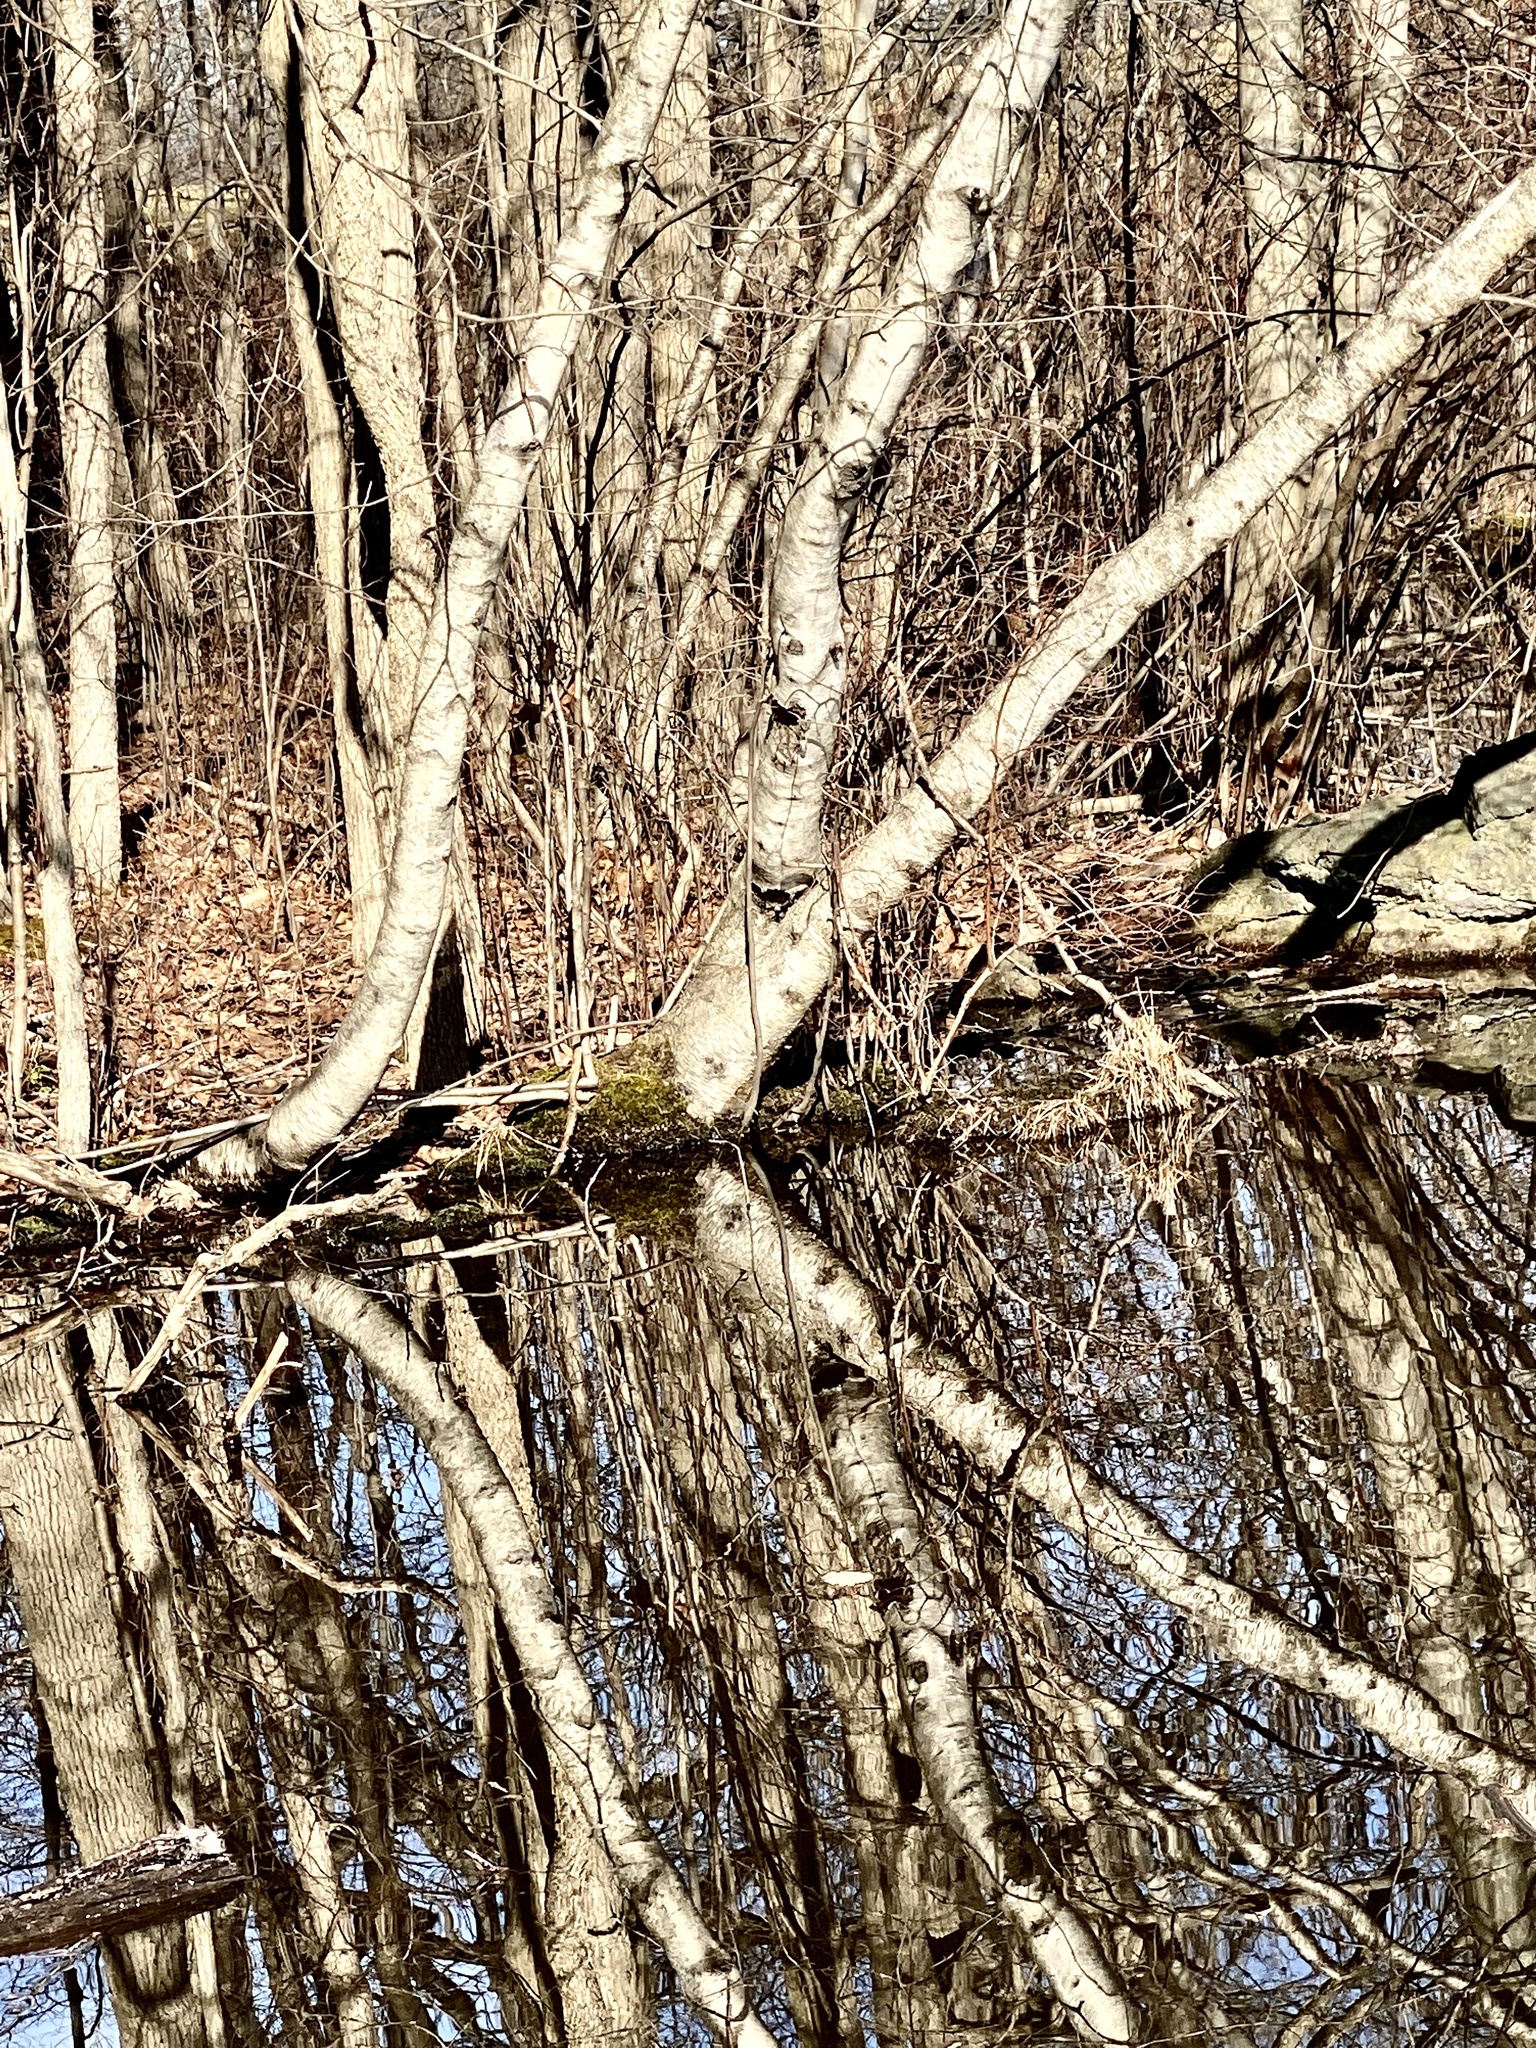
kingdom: Plantae
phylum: Tracheophyta
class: Magnoliopsida
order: Fagales
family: Betulaceae
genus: Betula
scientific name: Betula populifolia
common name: Fire birch
